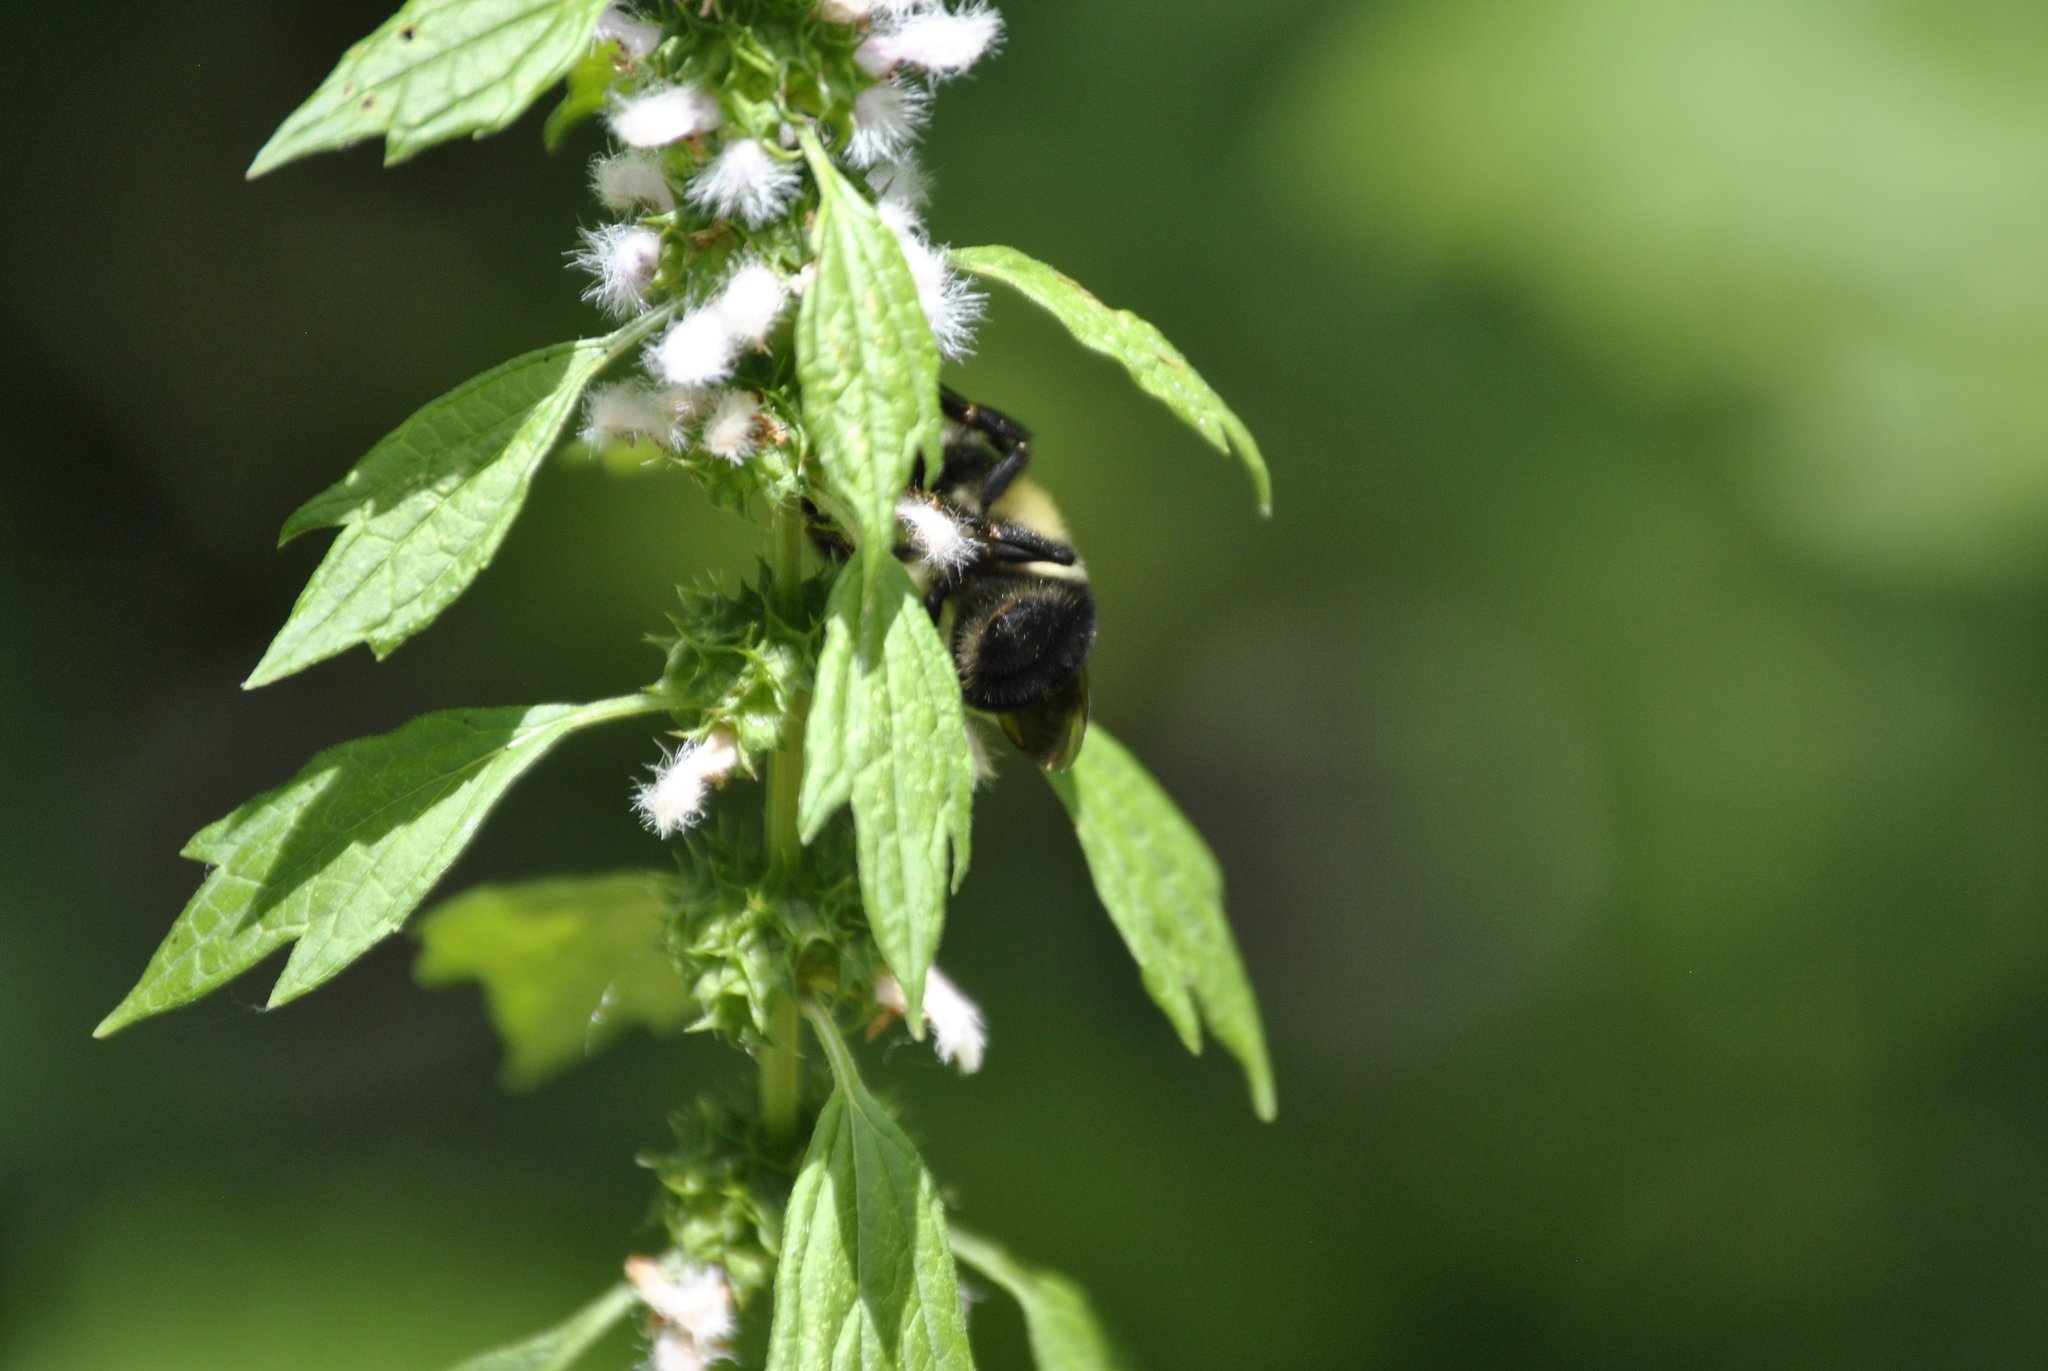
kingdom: Animalia
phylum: Arthropoda
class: Insecta
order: Hymenoptera
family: Apidae
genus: Bombus
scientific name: Bombus bimaculatus
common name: Two-spotted bumble bee
